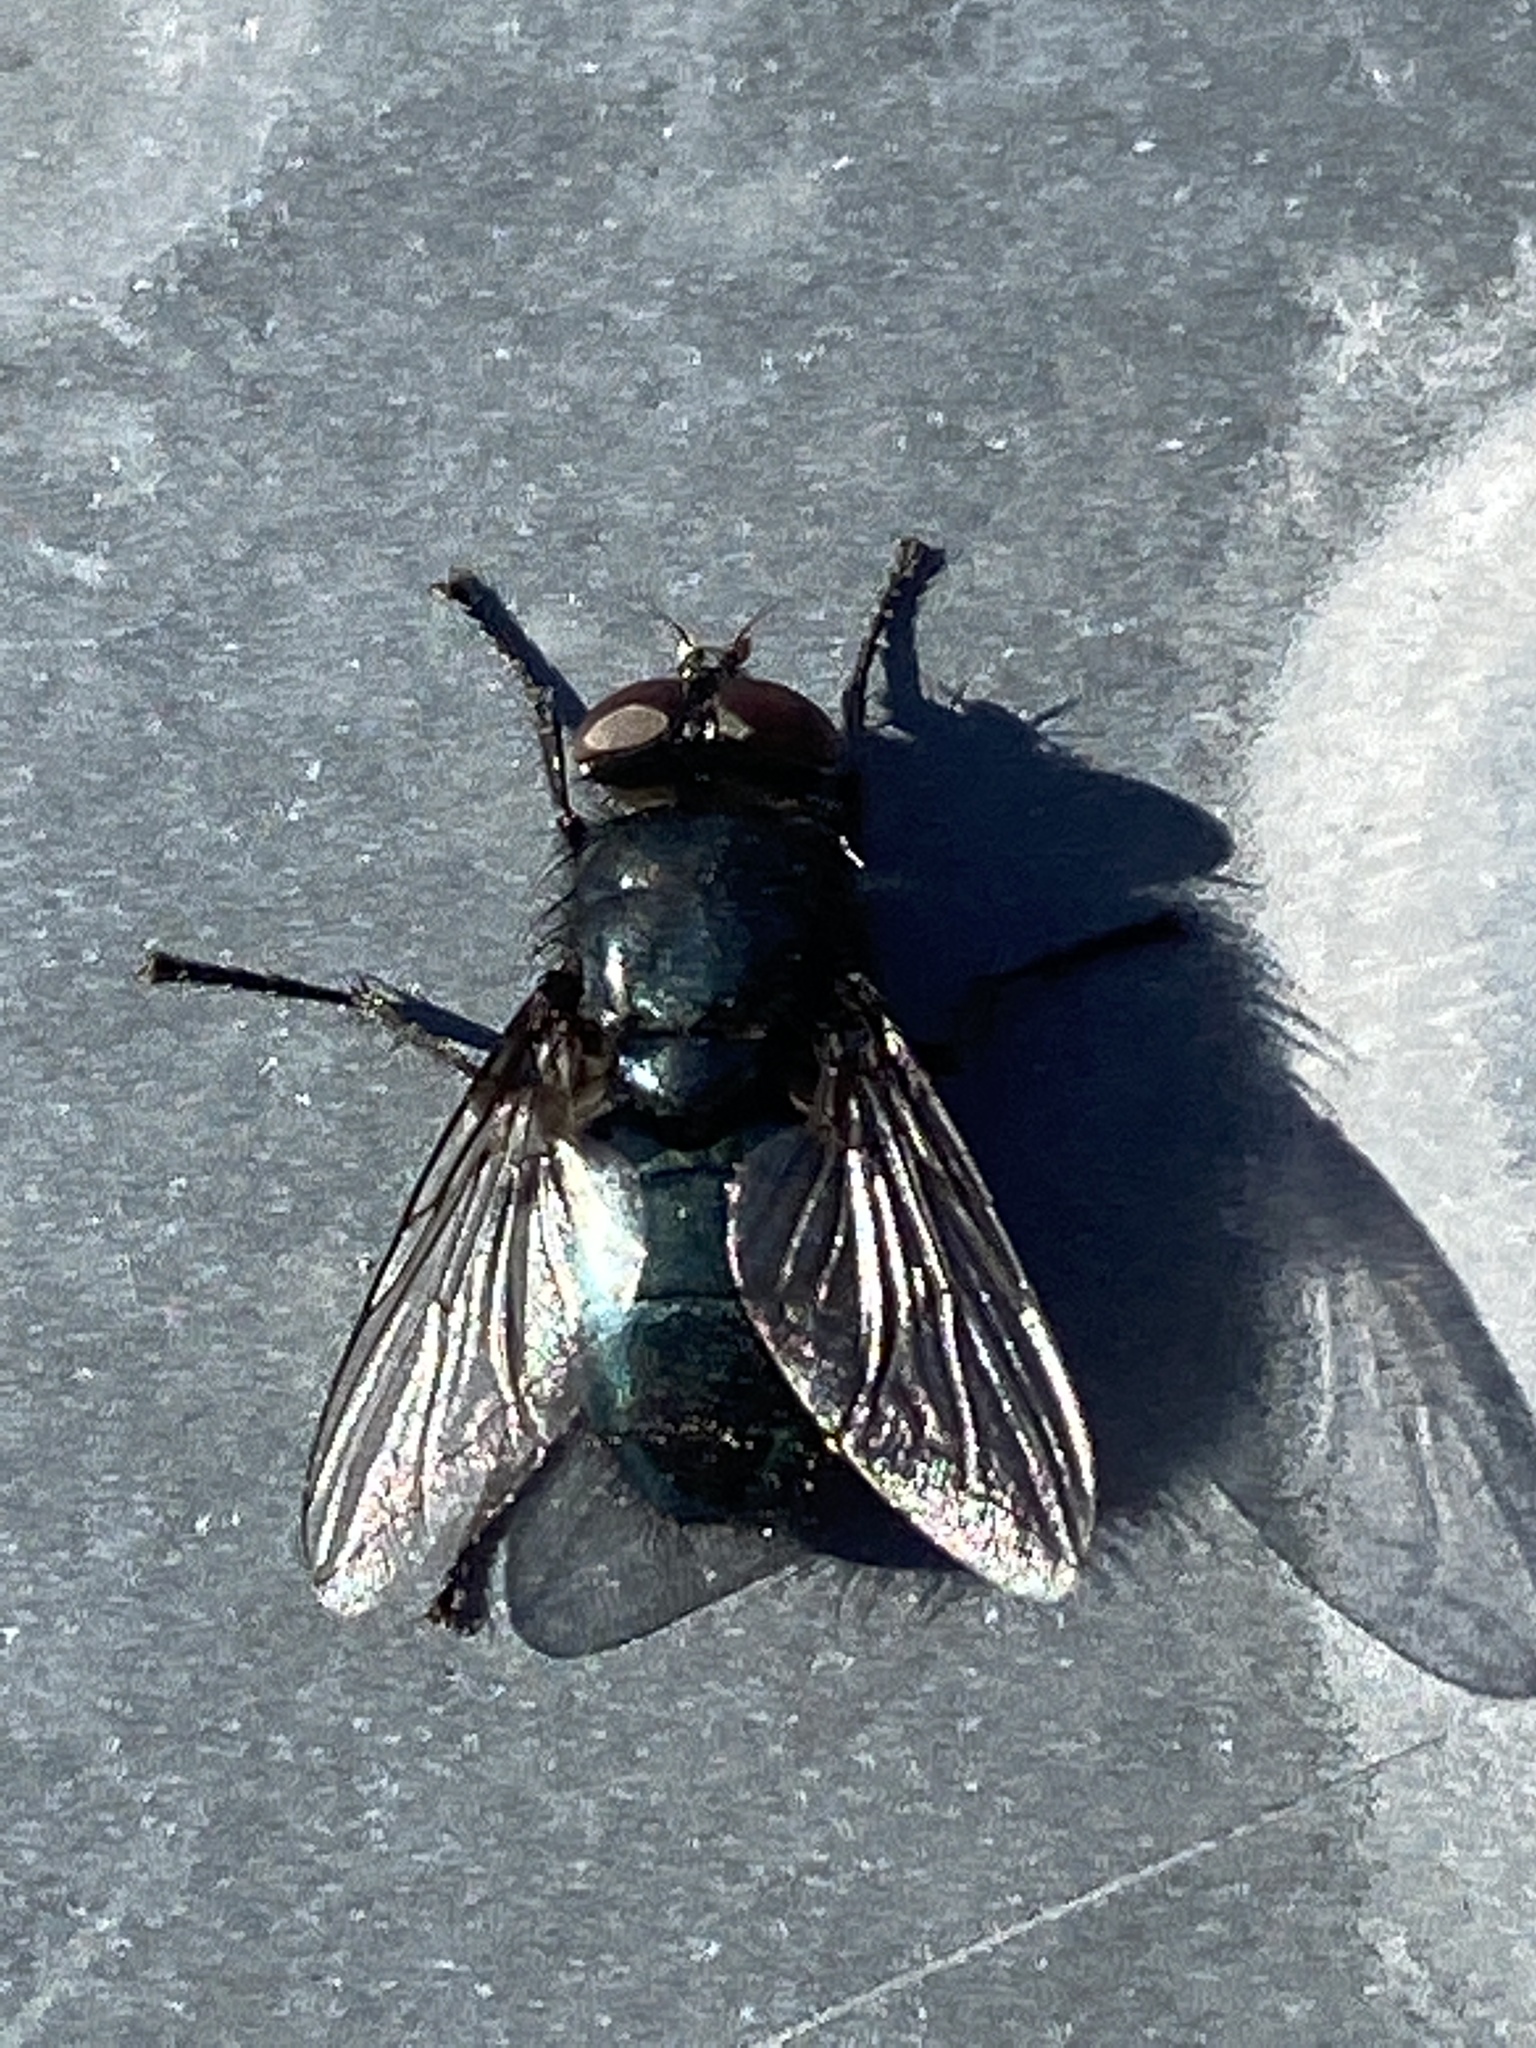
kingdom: Animalia
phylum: Arthropoda
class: Insecta
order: Diptera
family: Calliphoridae
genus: Protophormia
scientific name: Protophormia terraenovae
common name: Blackbottle
